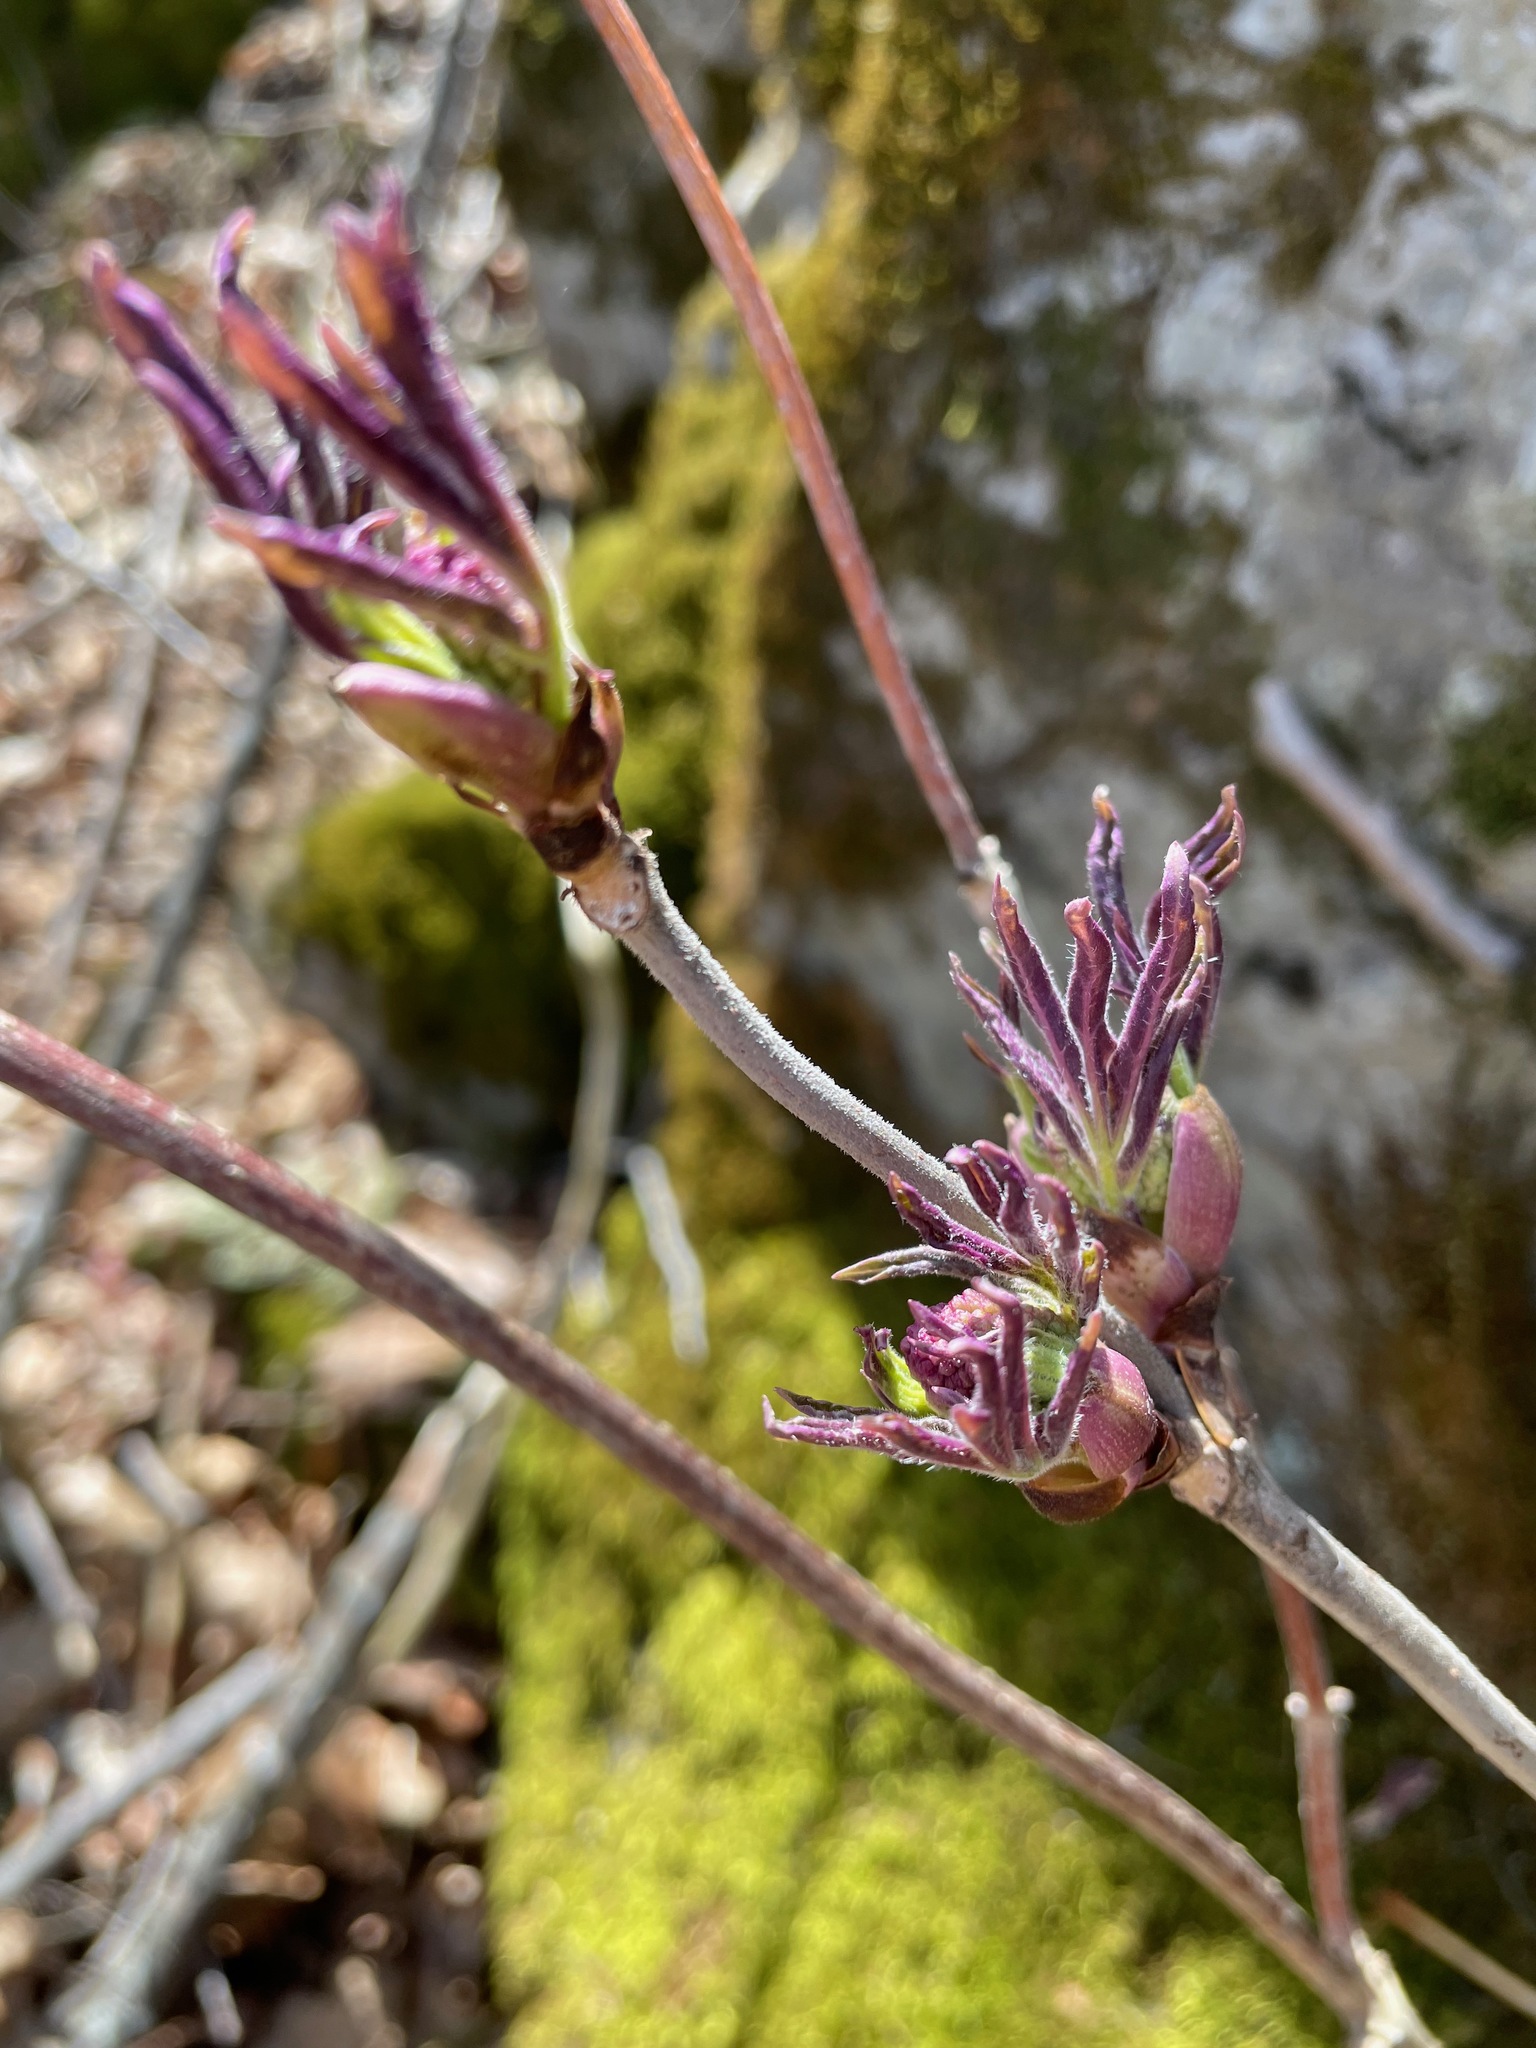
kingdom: Plantae
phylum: Tracheophyta
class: Magnoliopsida
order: Dipsacales
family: Viburnaceae
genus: Sambucus
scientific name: Sambucus racemosa
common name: Red-berried elder
